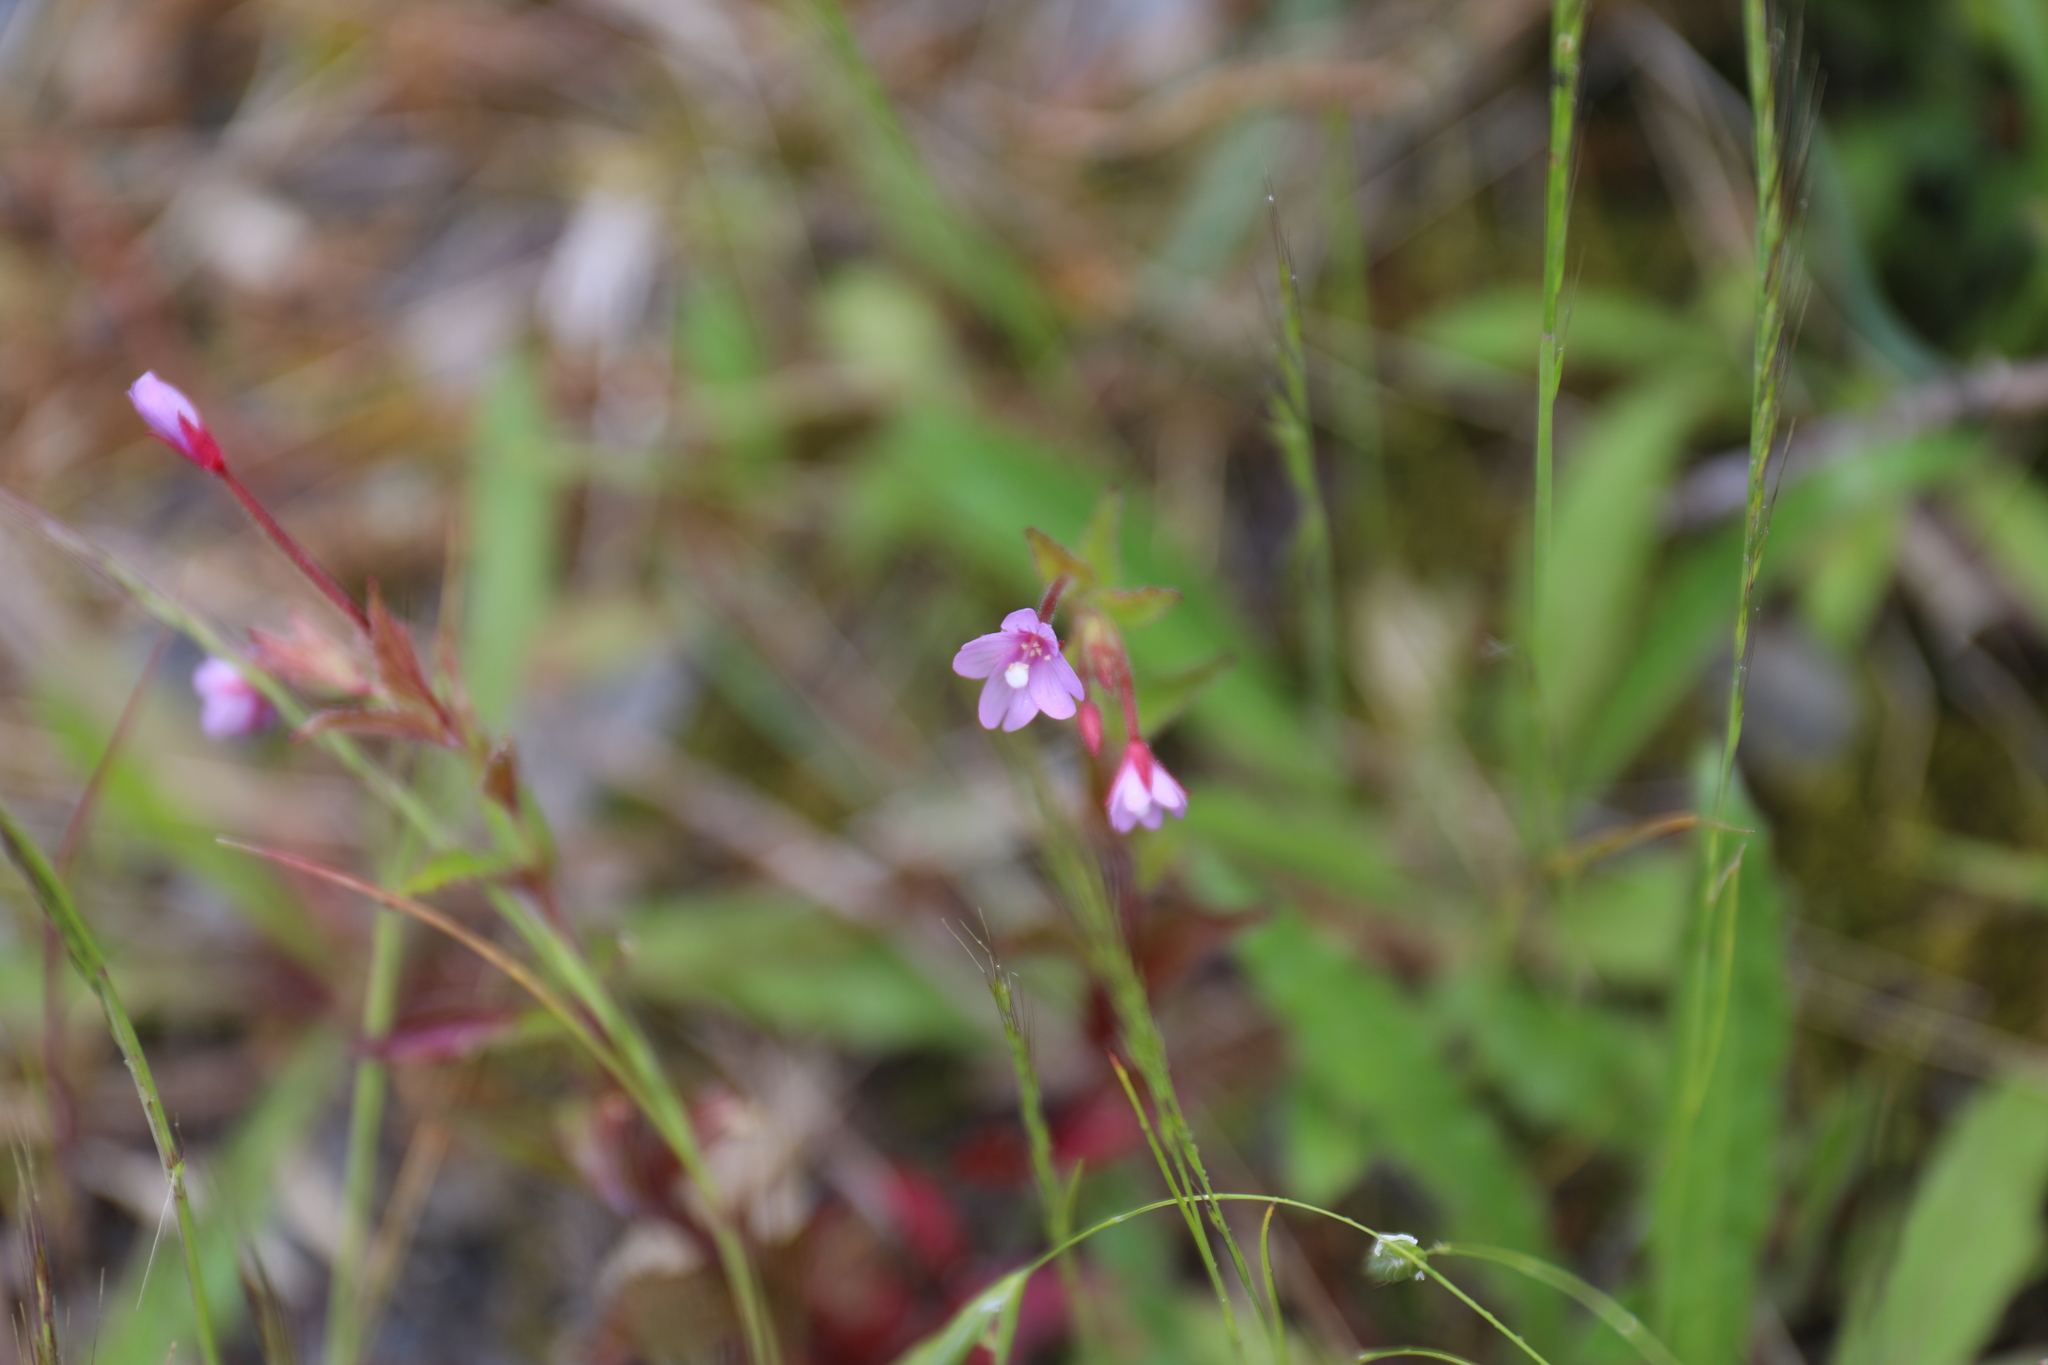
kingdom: Plantae
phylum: Tracheophyta
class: Magnoliopsida
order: Myrtales
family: Onagraceae
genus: Epilobium
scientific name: Epilobium hohuanense
